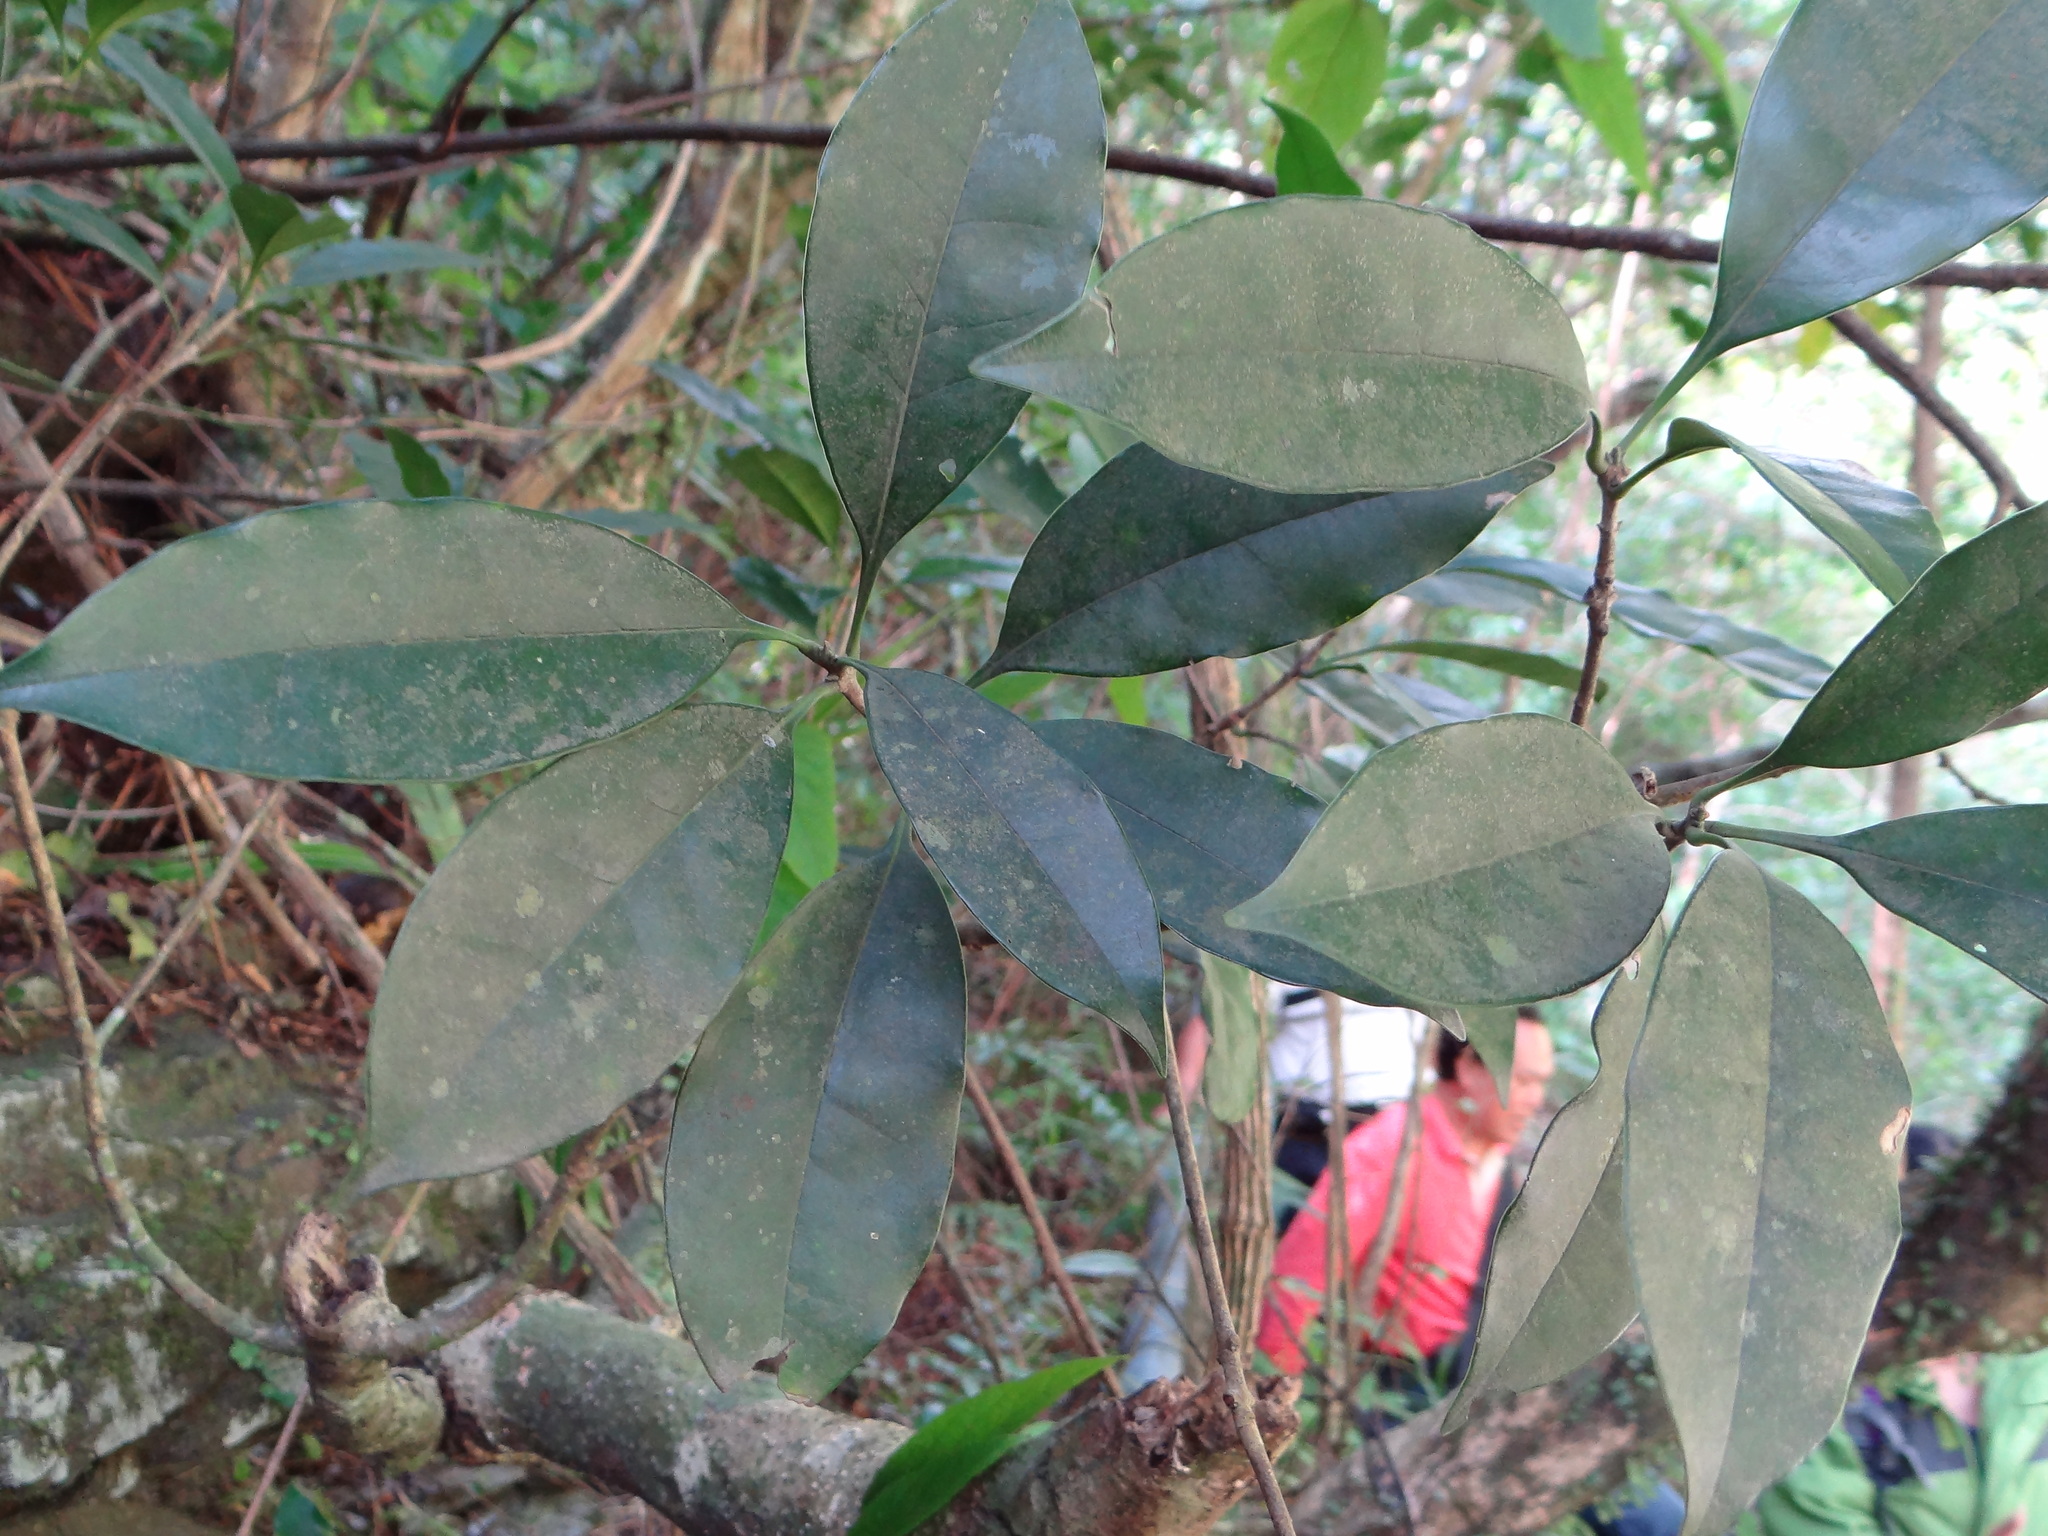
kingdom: Plantae
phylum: Tracheophyta
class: Magnoliopsida
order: Lamiales
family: Oleaceae
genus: Osmanthus
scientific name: Osmanthus kaoi
